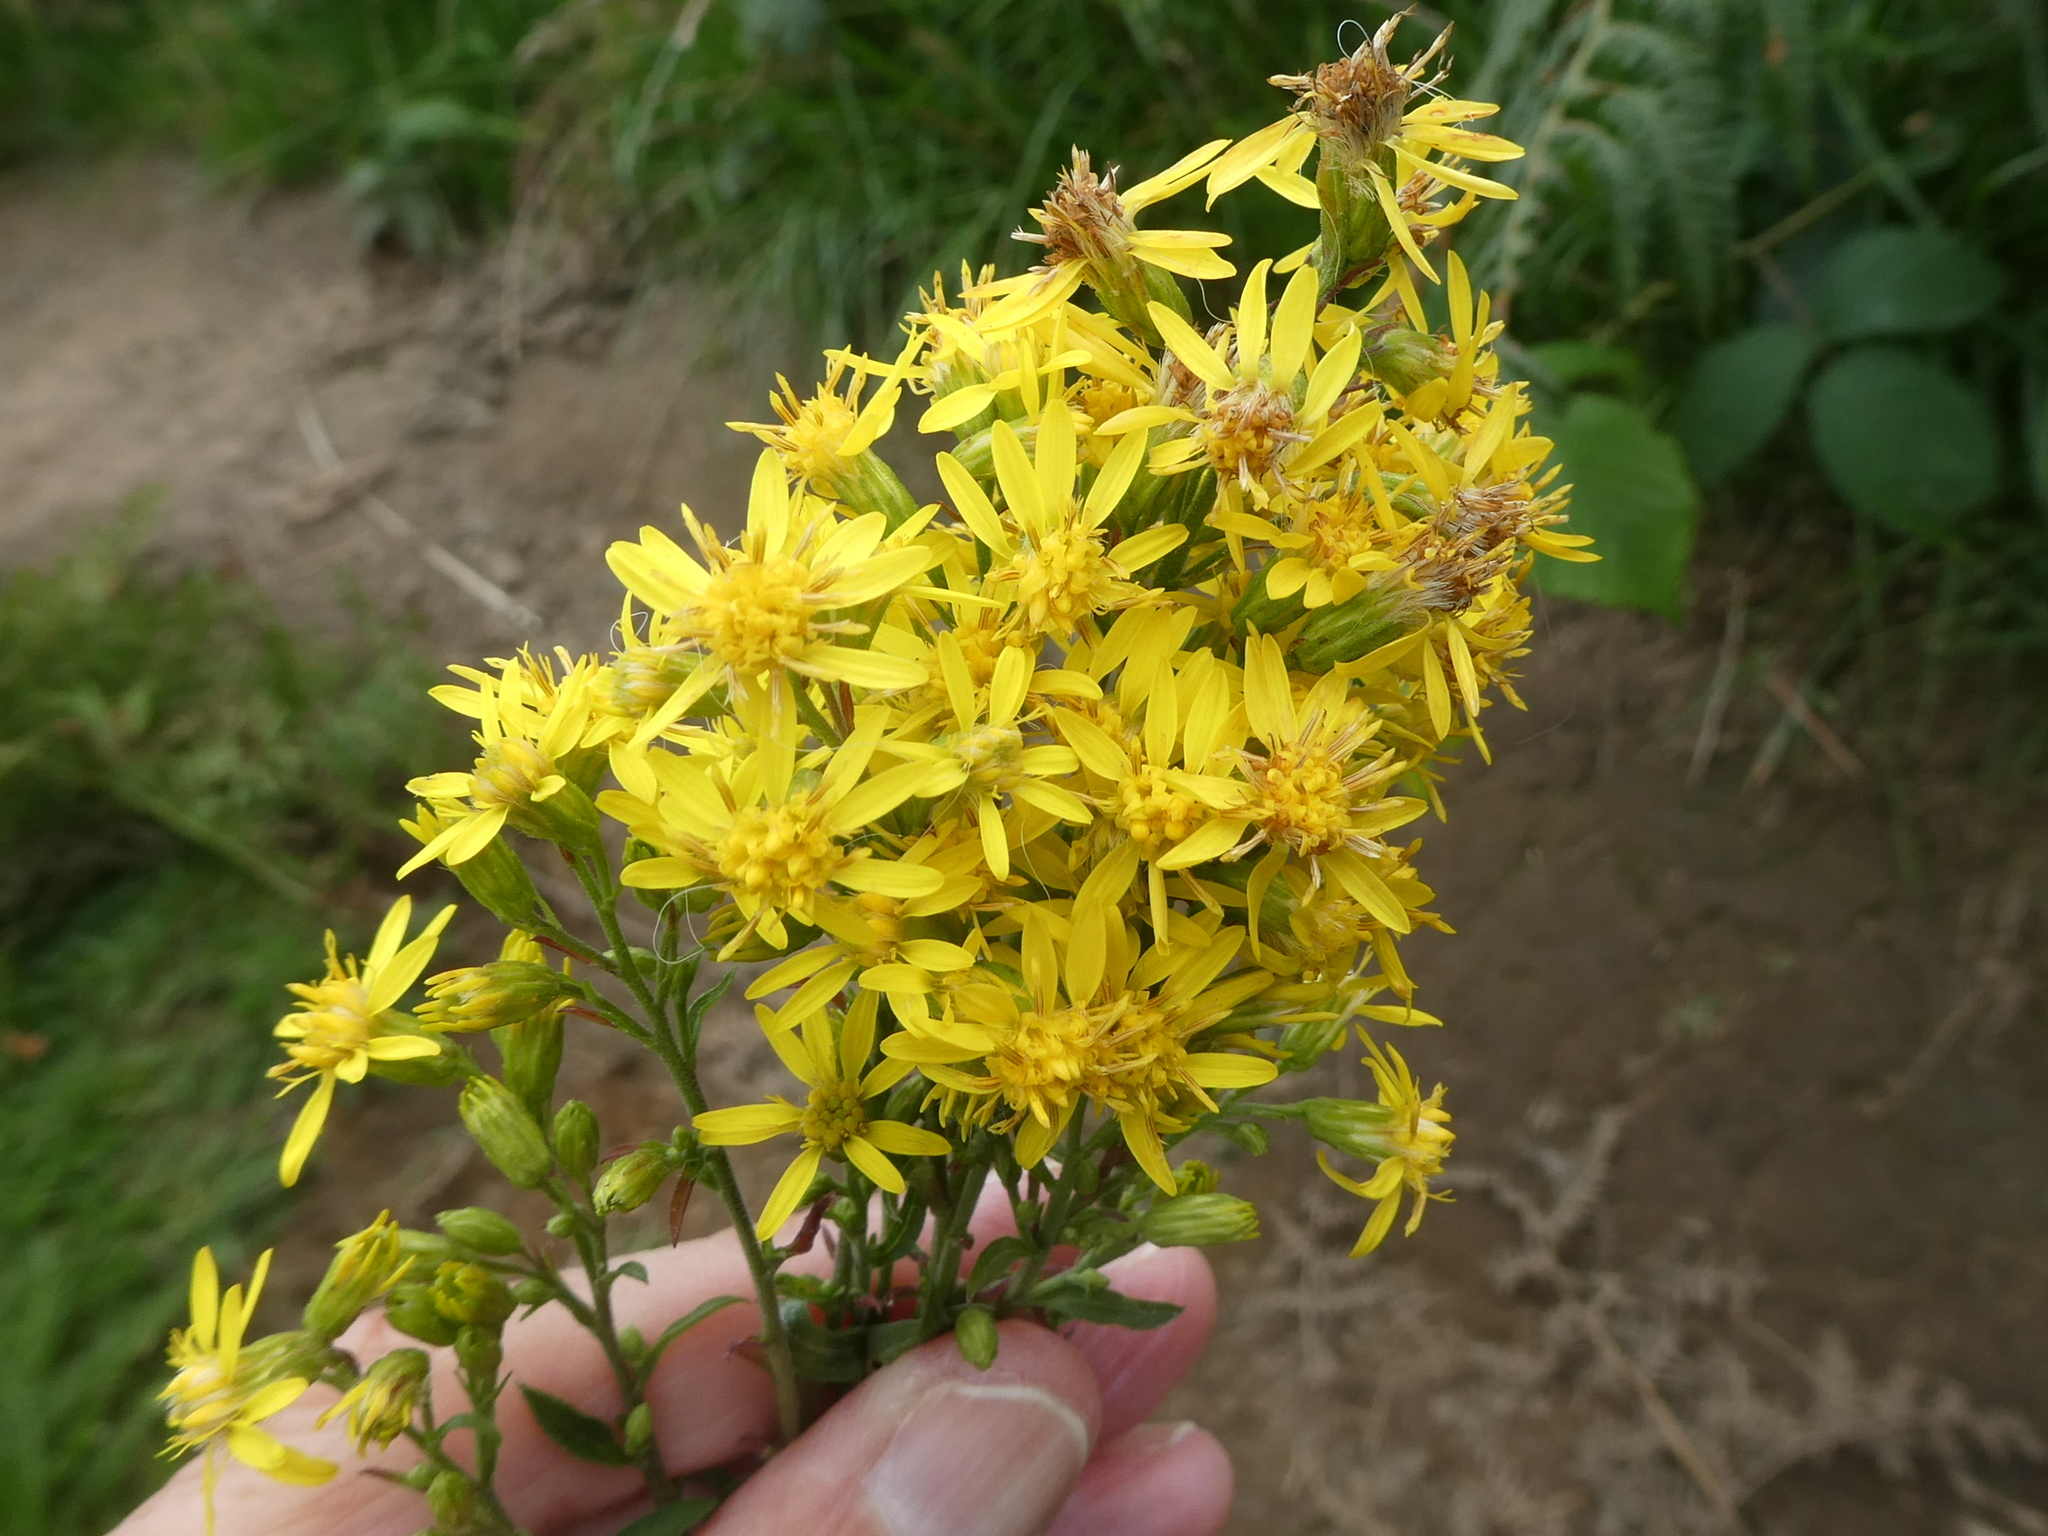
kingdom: Plantae
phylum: Tracheophyta
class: Magnoliopsida
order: Asterales
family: Asteraceae
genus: Solidago
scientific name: Solidago virgaurea
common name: Goldenrod
